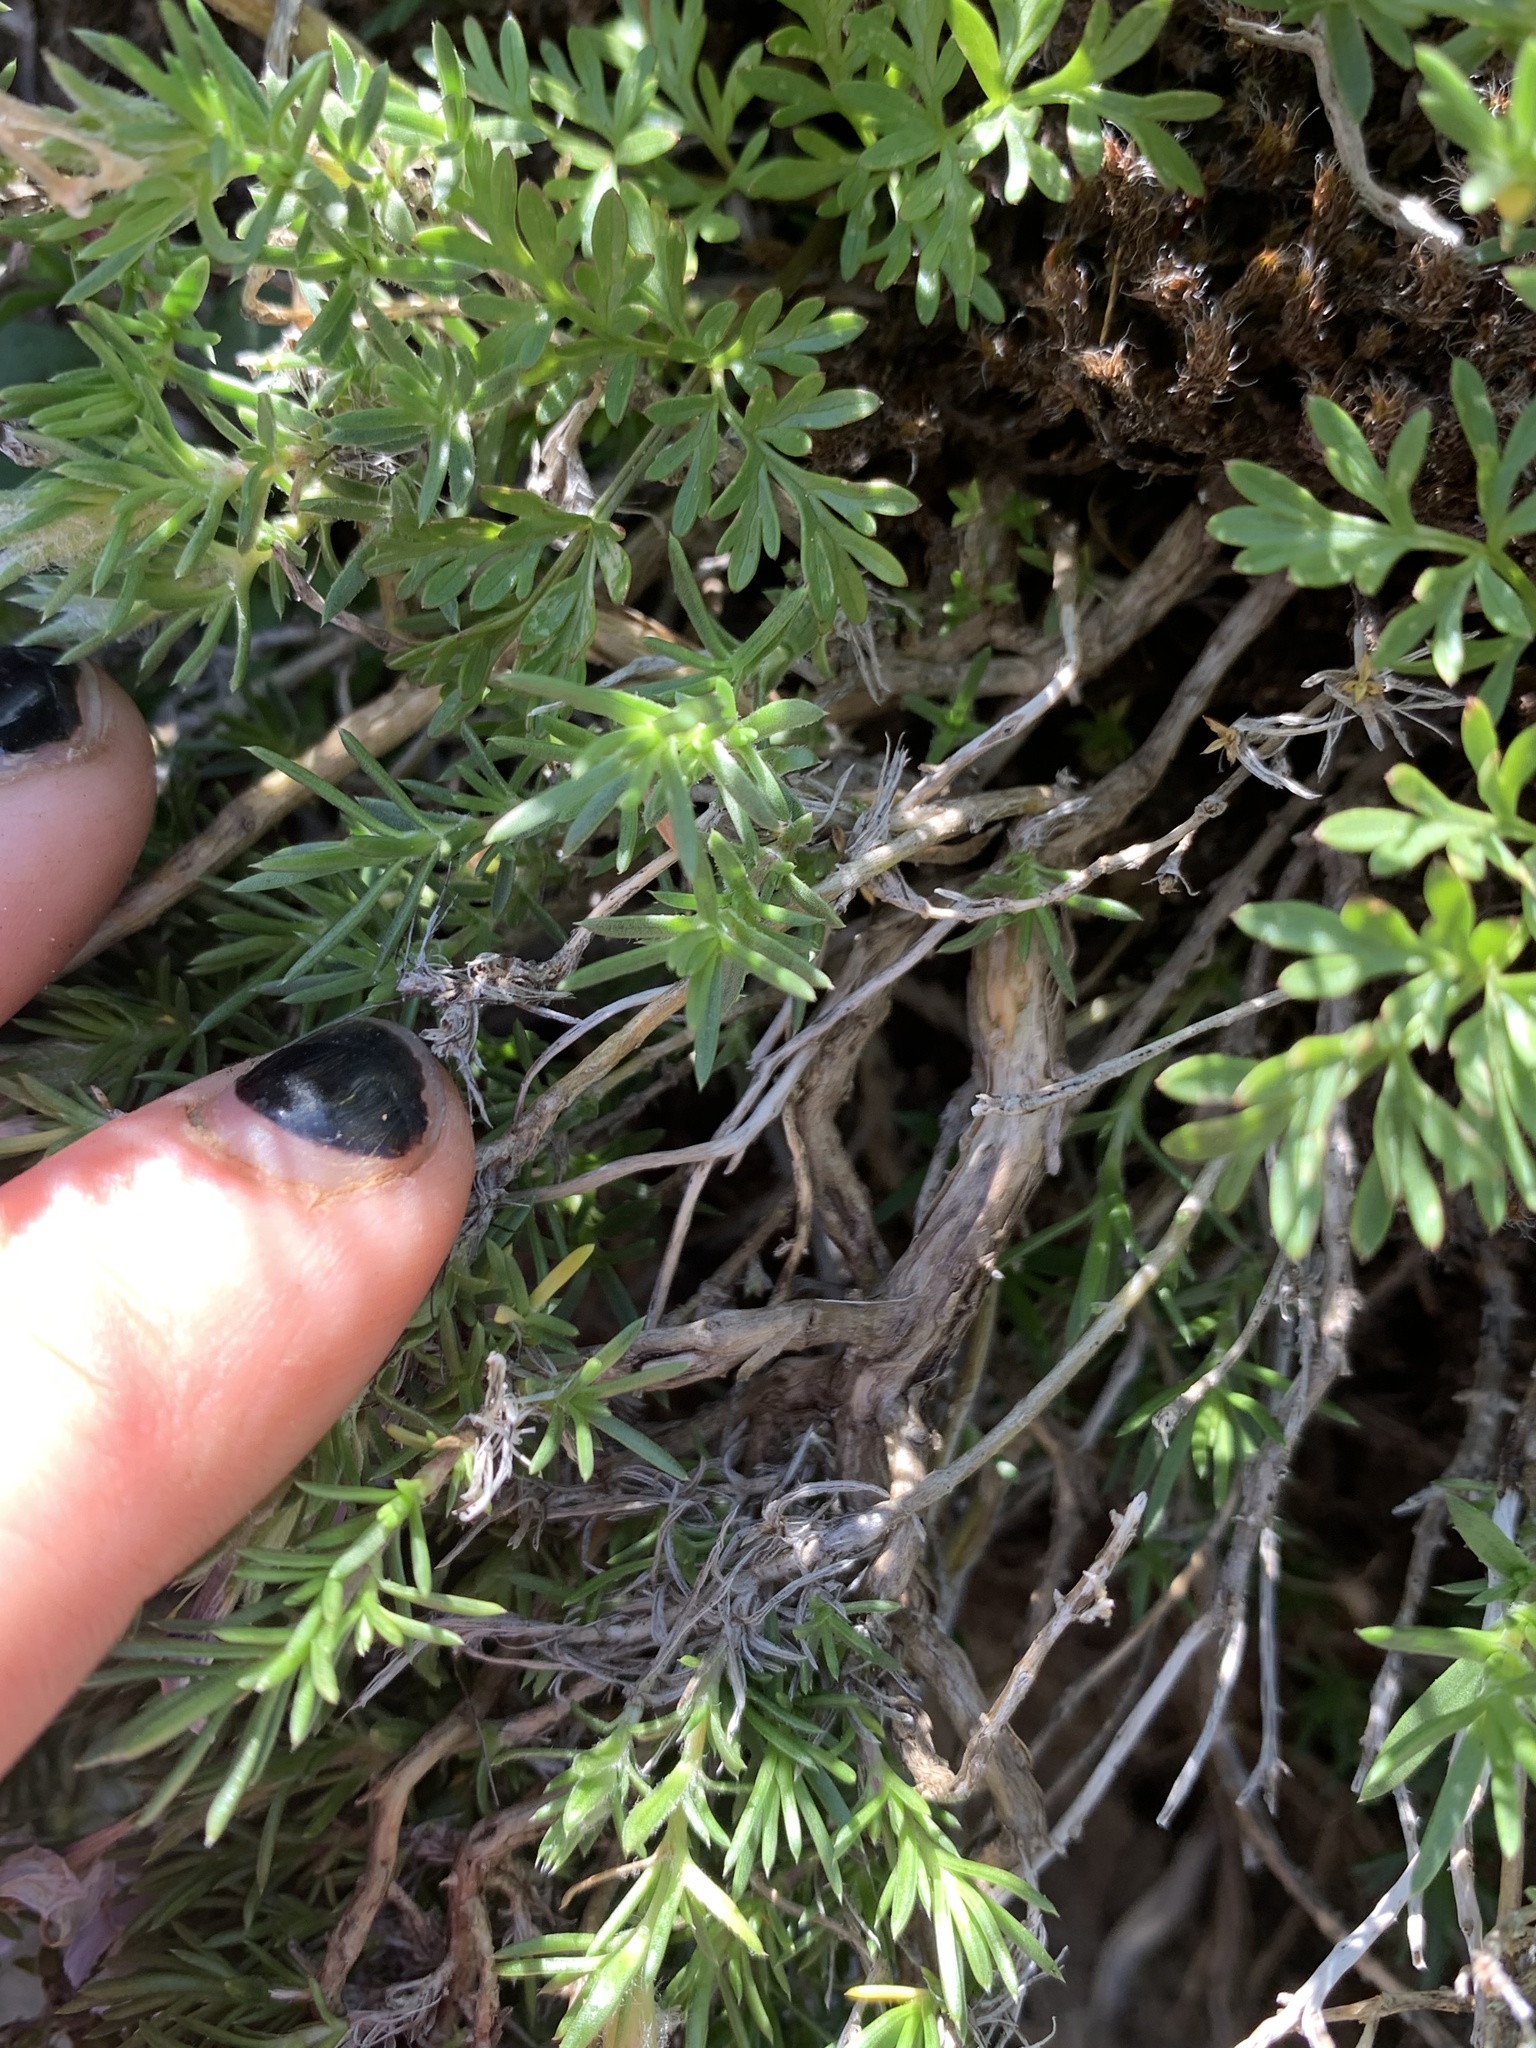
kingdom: Plantae
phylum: Tracheophyta
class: Magnoliopsida
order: Ericales
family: Polemoniaceae
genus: Phlox
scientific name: Phlox diffusa
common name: Mat phlox
